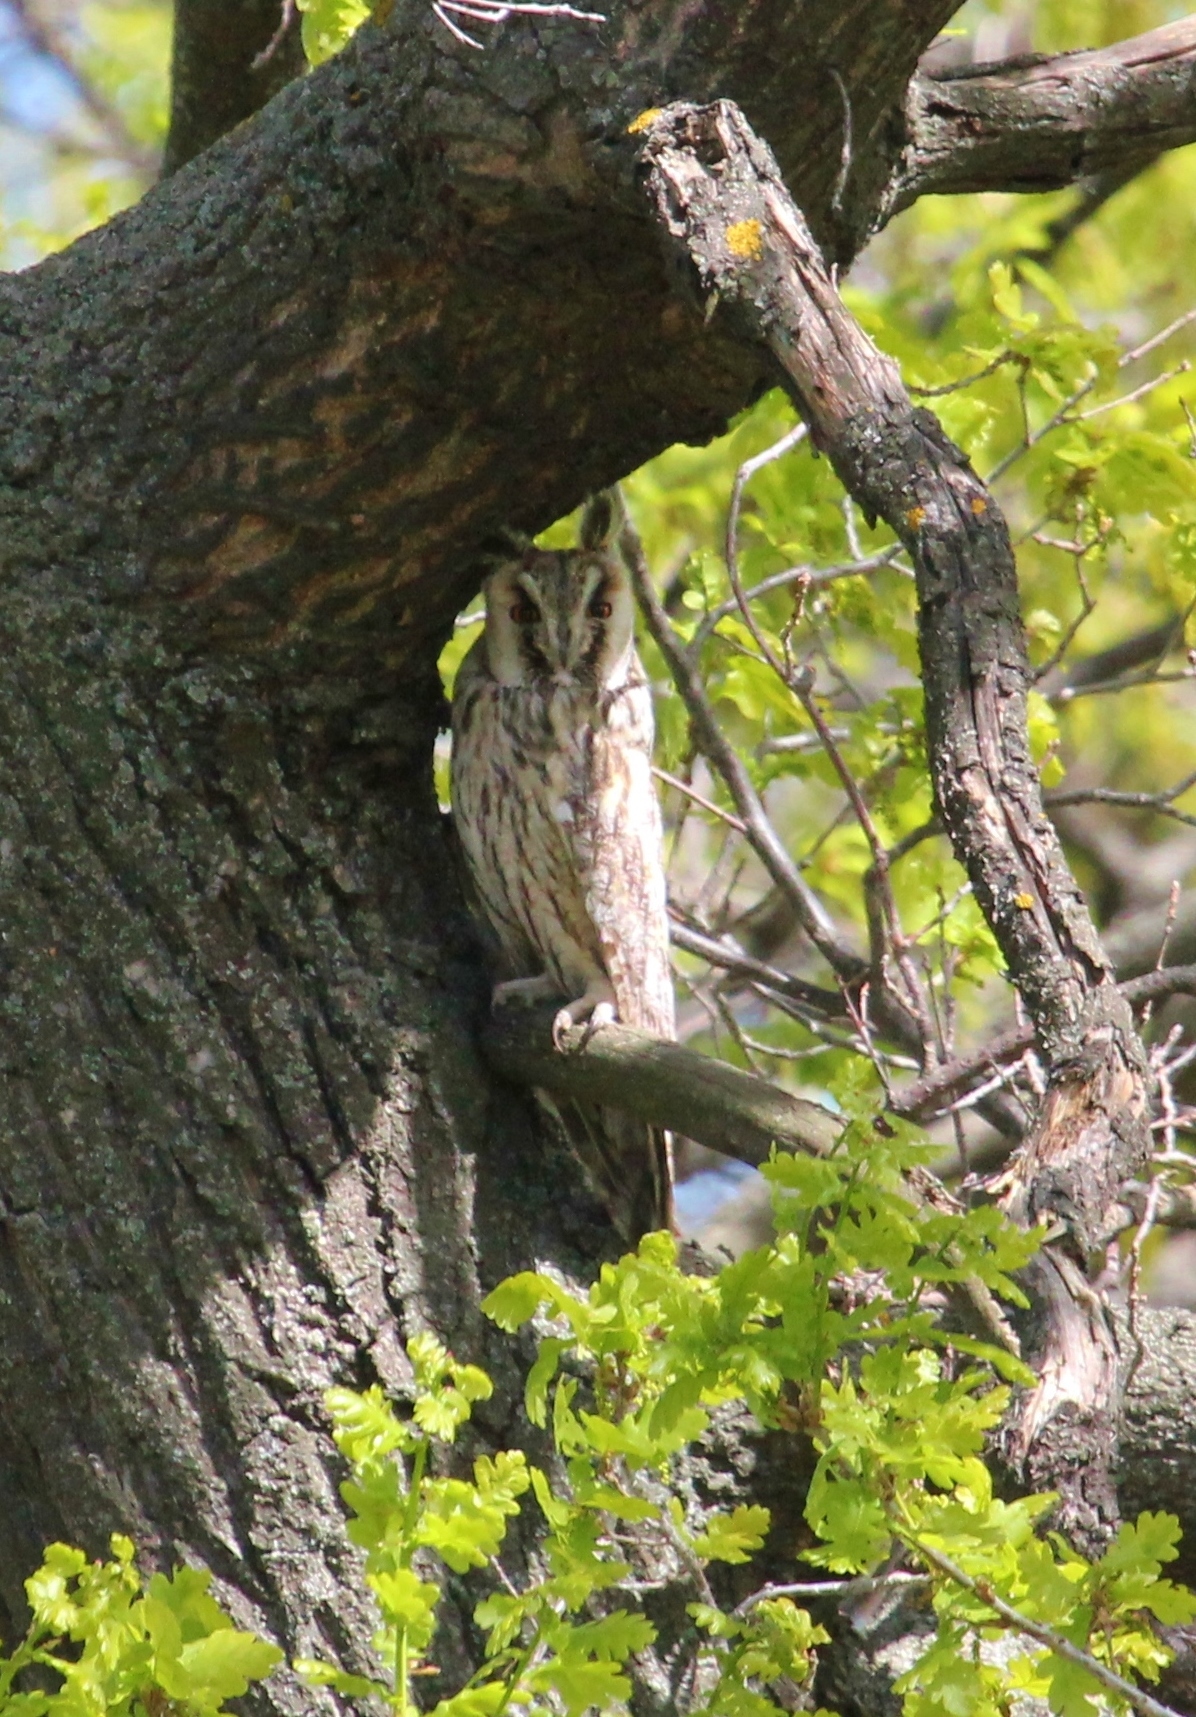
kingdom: Animalia
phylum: Chordata
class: Aves
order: Strigiformes
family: Strigidae
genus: Asio
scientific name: Asio otus
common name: Long-eared owl
